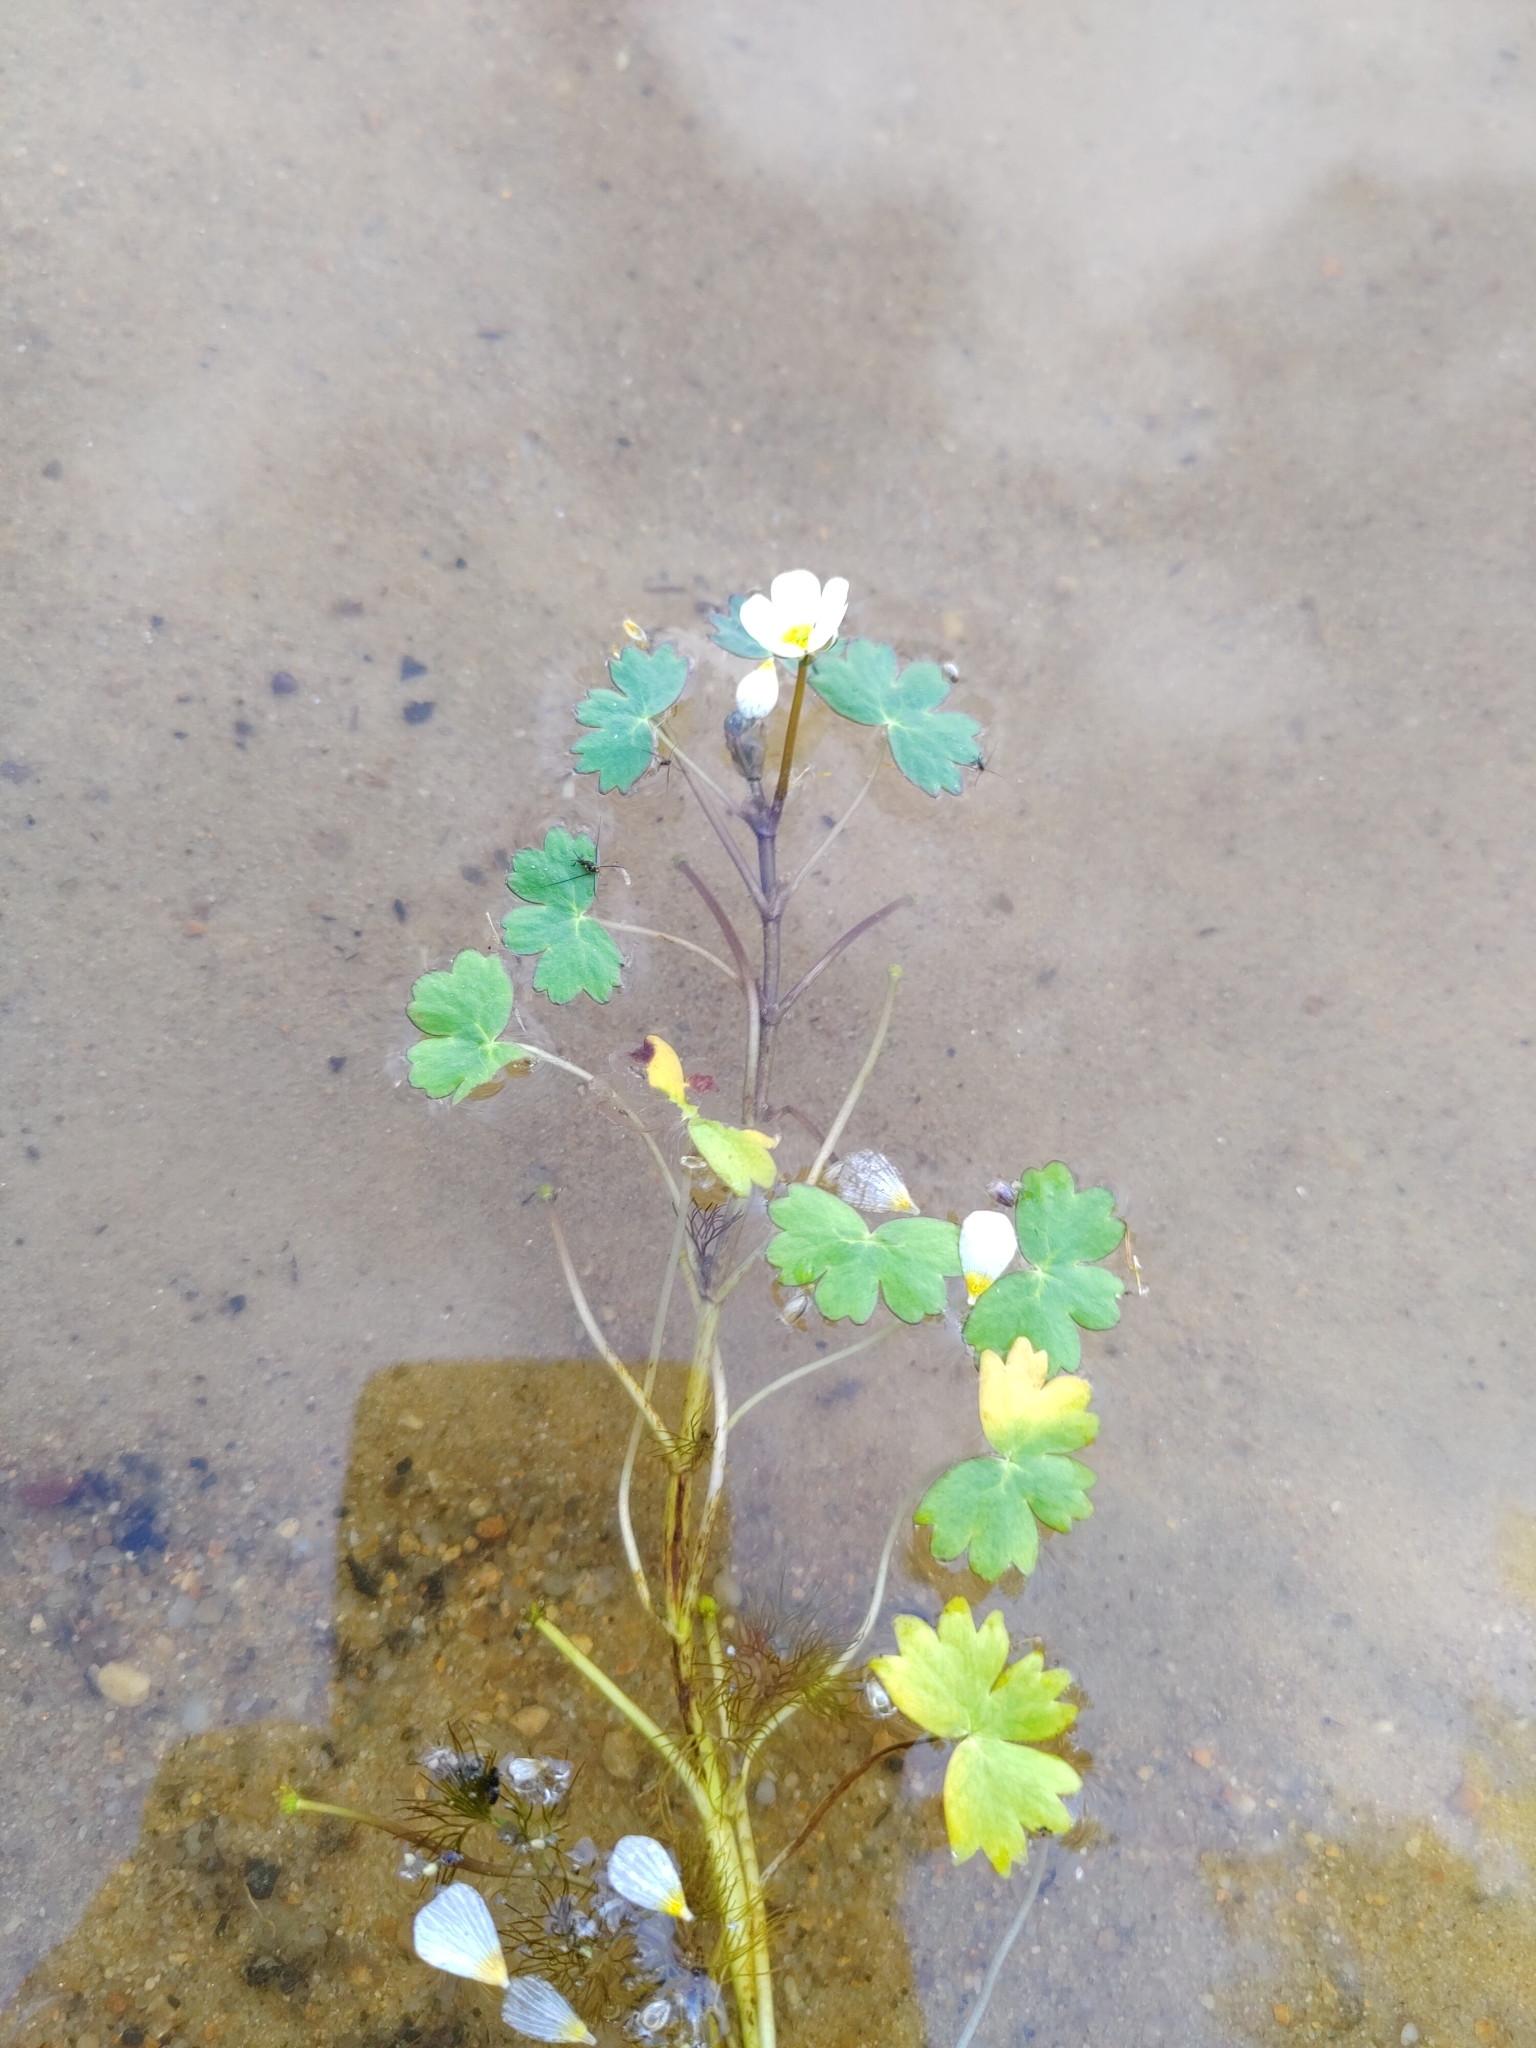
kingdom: Plantae
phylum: Tracheophyta
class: Magnoliopsida
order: Ranunculales
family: Ranunculaceae
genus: Ranunculus
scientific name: Ranunculus peltatus
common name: Pond water-crowfoot
